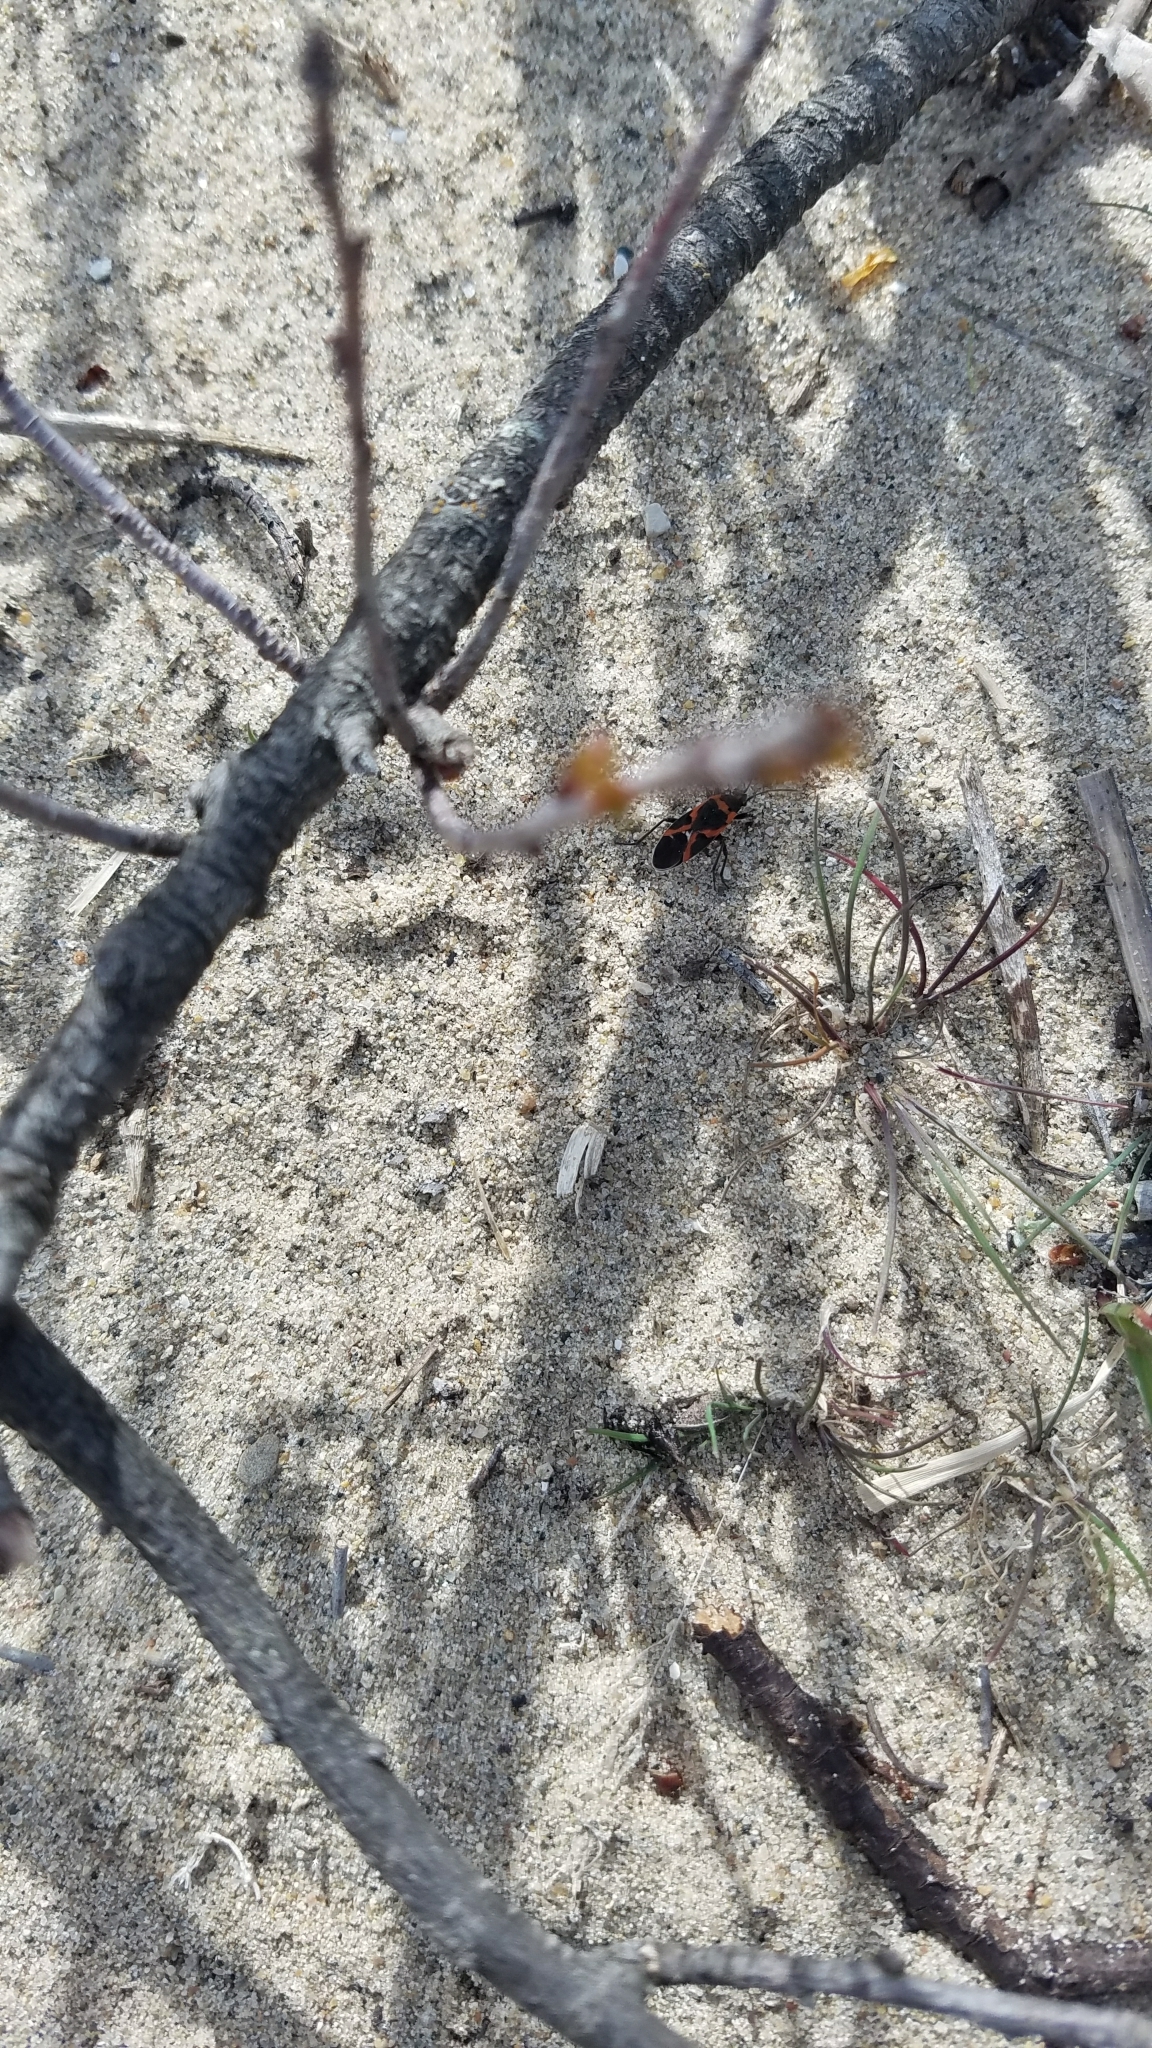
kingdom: Animalia
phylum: Arthropoda
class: Insecta
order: Hemiptera
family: Lygaeidae
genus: Lygaeus
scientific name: Lygaeus kalmii
